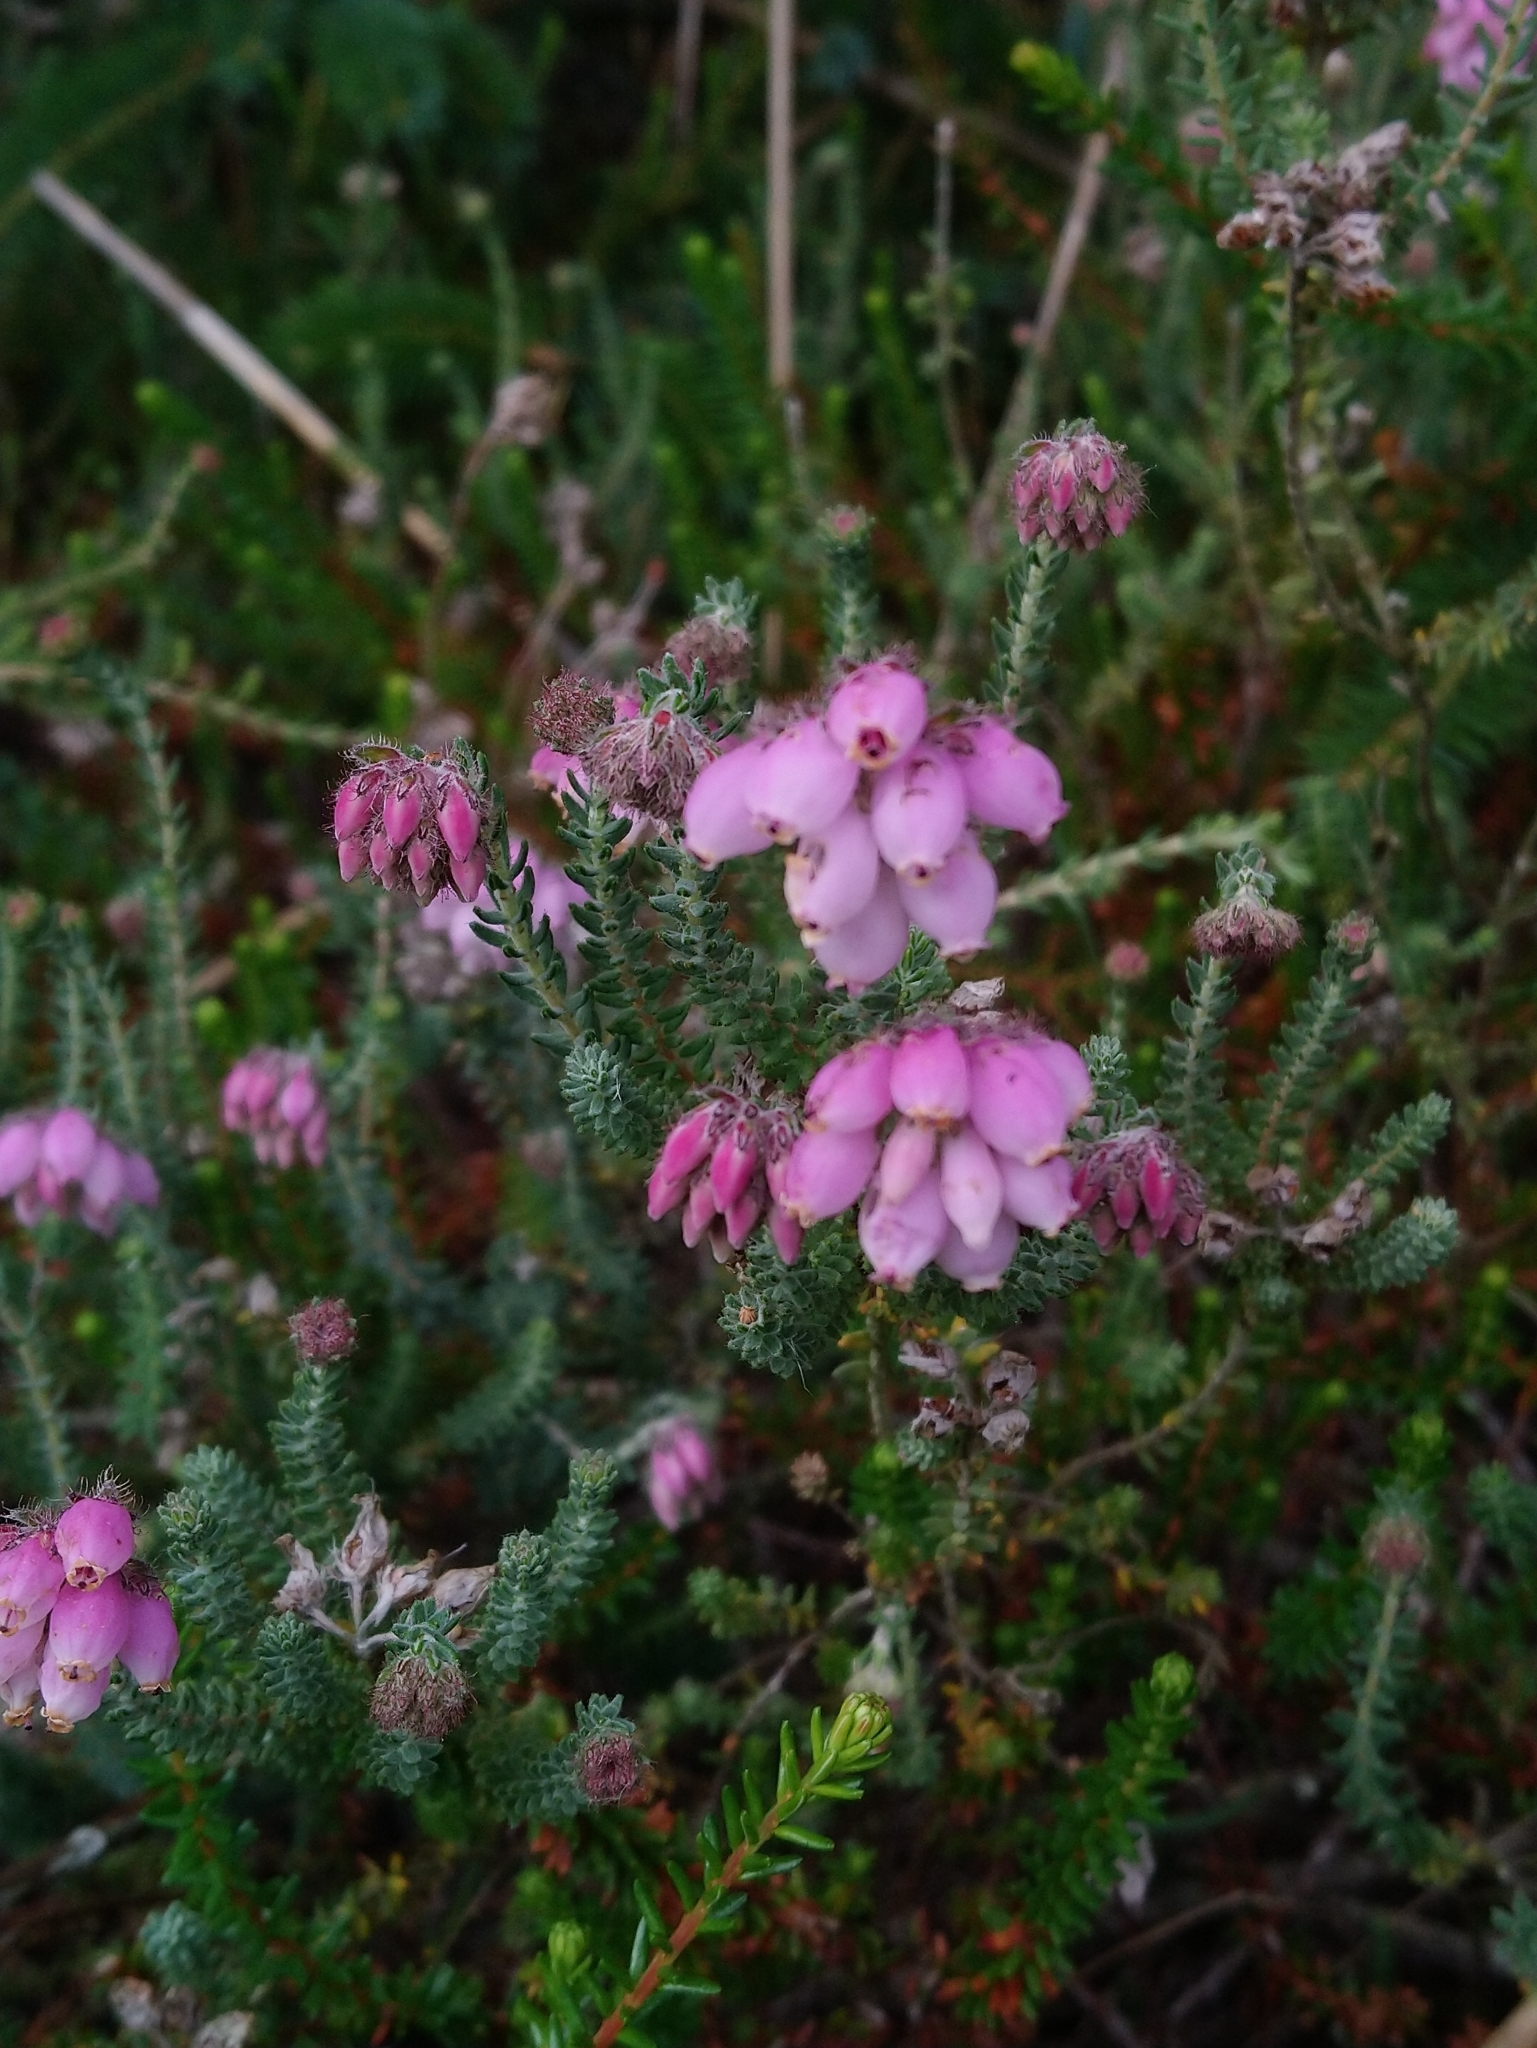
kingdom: Plantae
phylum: Tracheophyta
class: Magnoliopsida
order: Ericales
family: Ericaceae
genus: Erica
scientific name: Erica tetralix
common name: Cross-leaved heath
